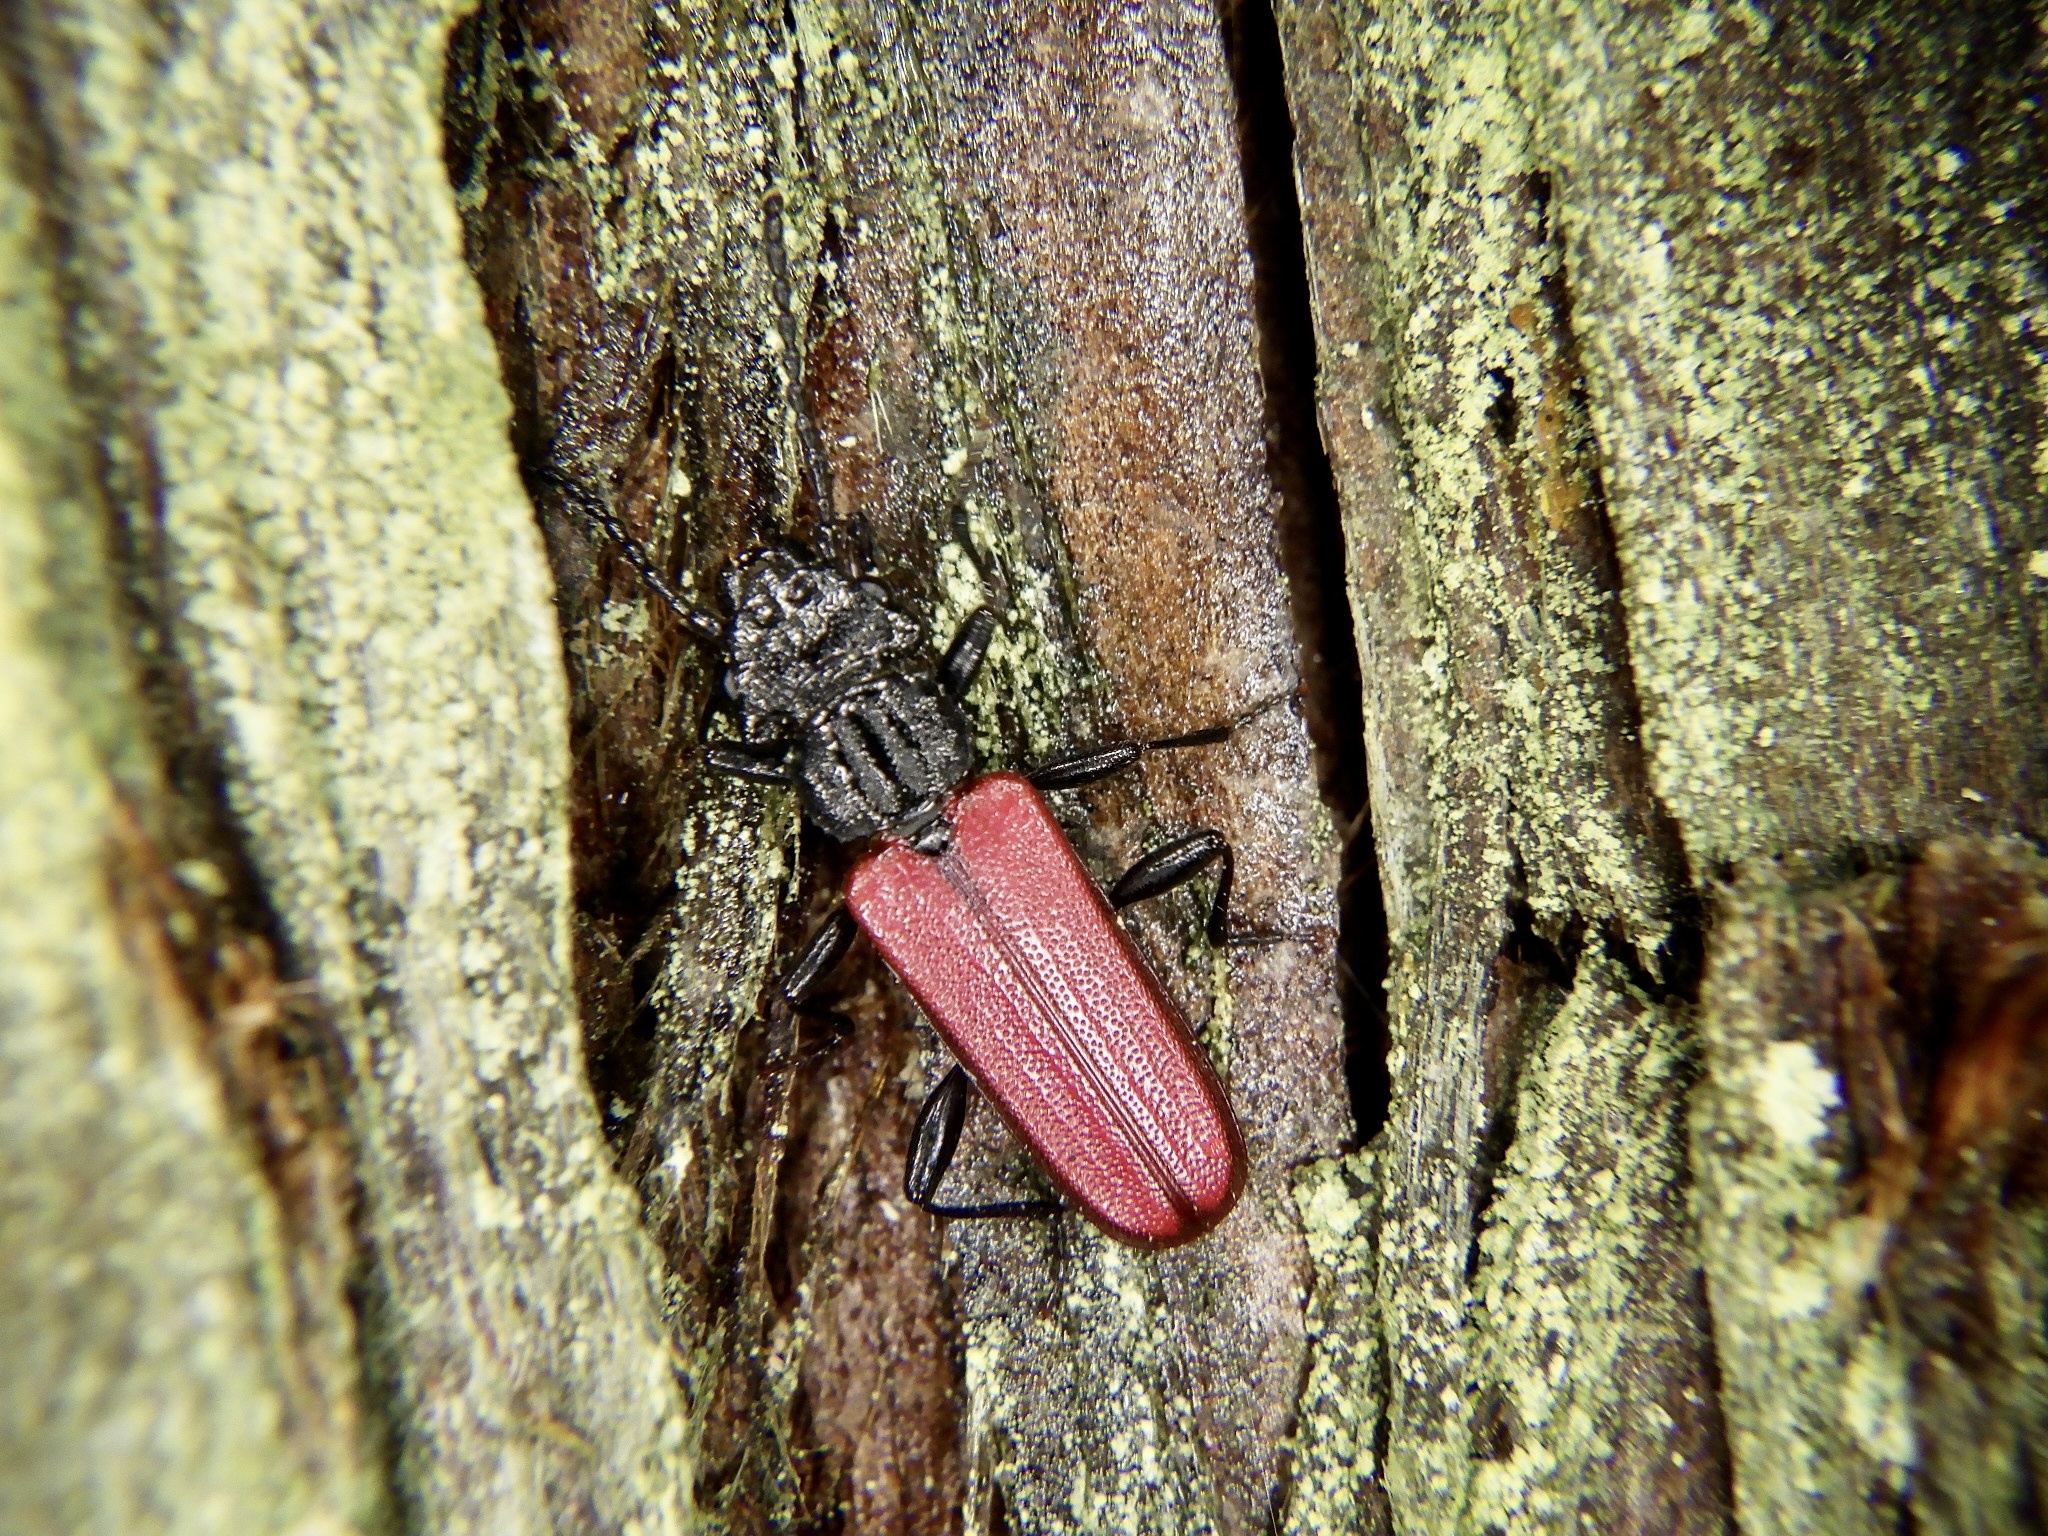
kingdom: Animalia
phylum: Arthropoda
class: Insecta
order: Coleoptera
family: Cucujidae
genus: Cucujus
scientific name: Cucujus
